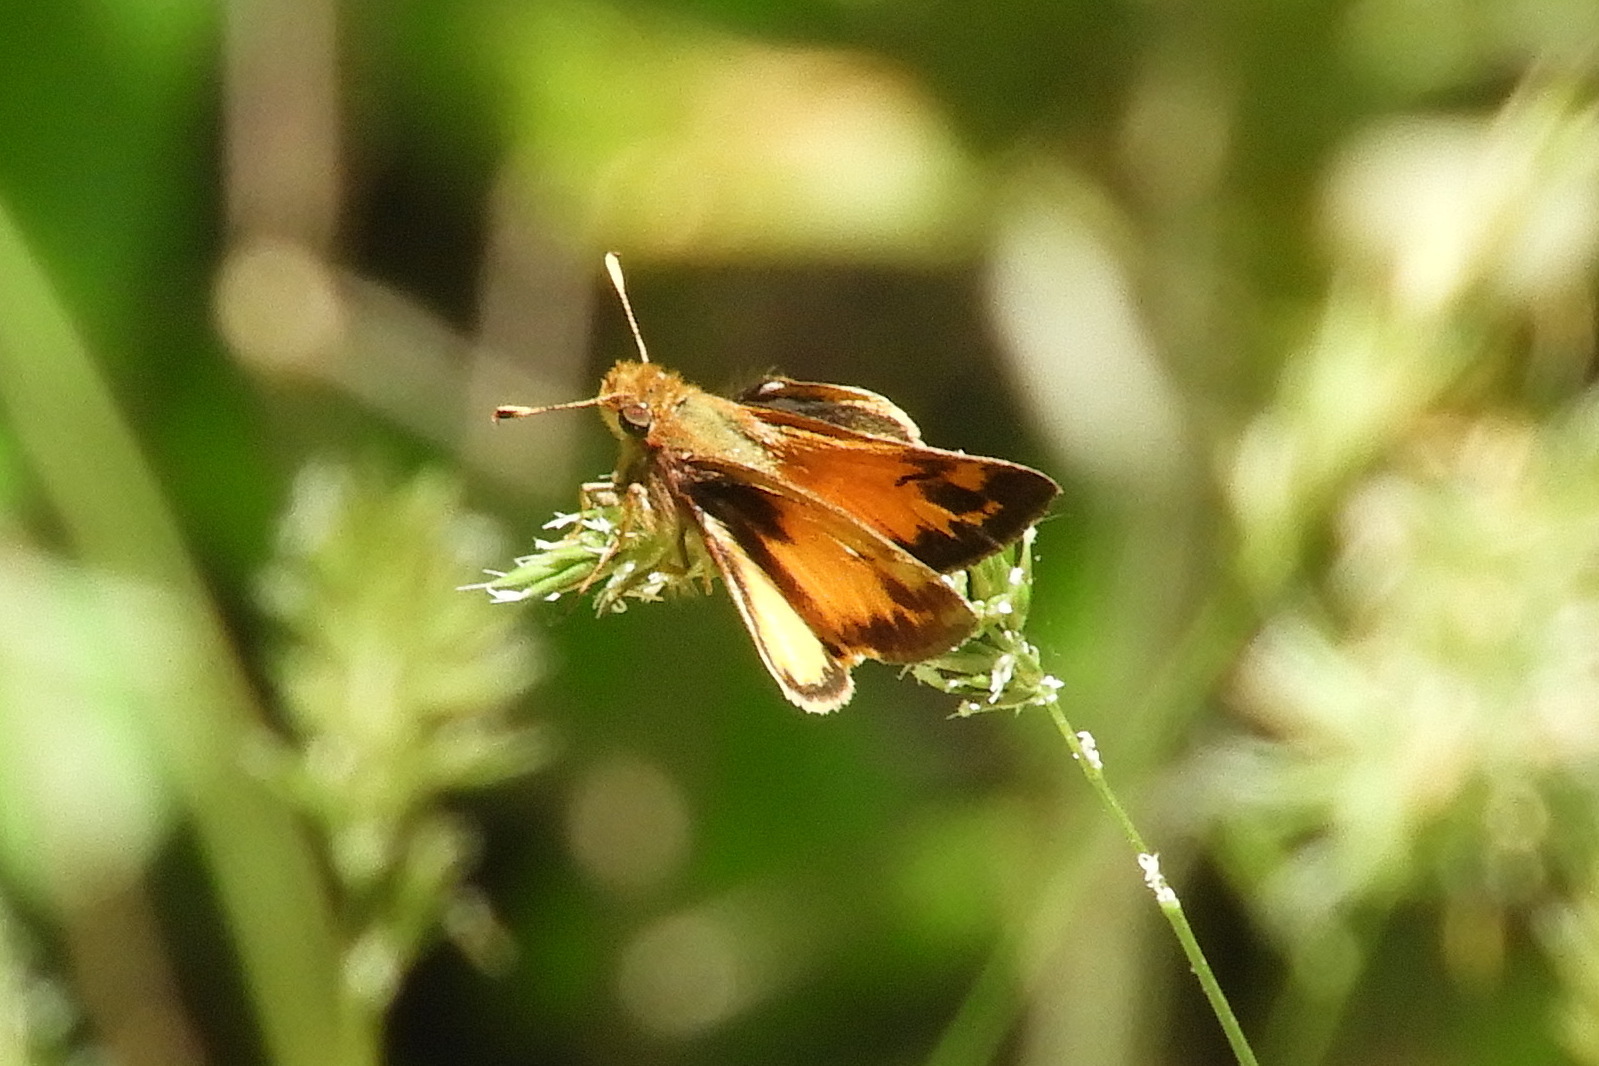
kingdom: Animalia
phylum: Arthropoda
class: Insecta
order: Lepidoptera
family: Hesperiidae
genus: Lon
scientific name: Lon zabulon
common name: Zabulon skipper
